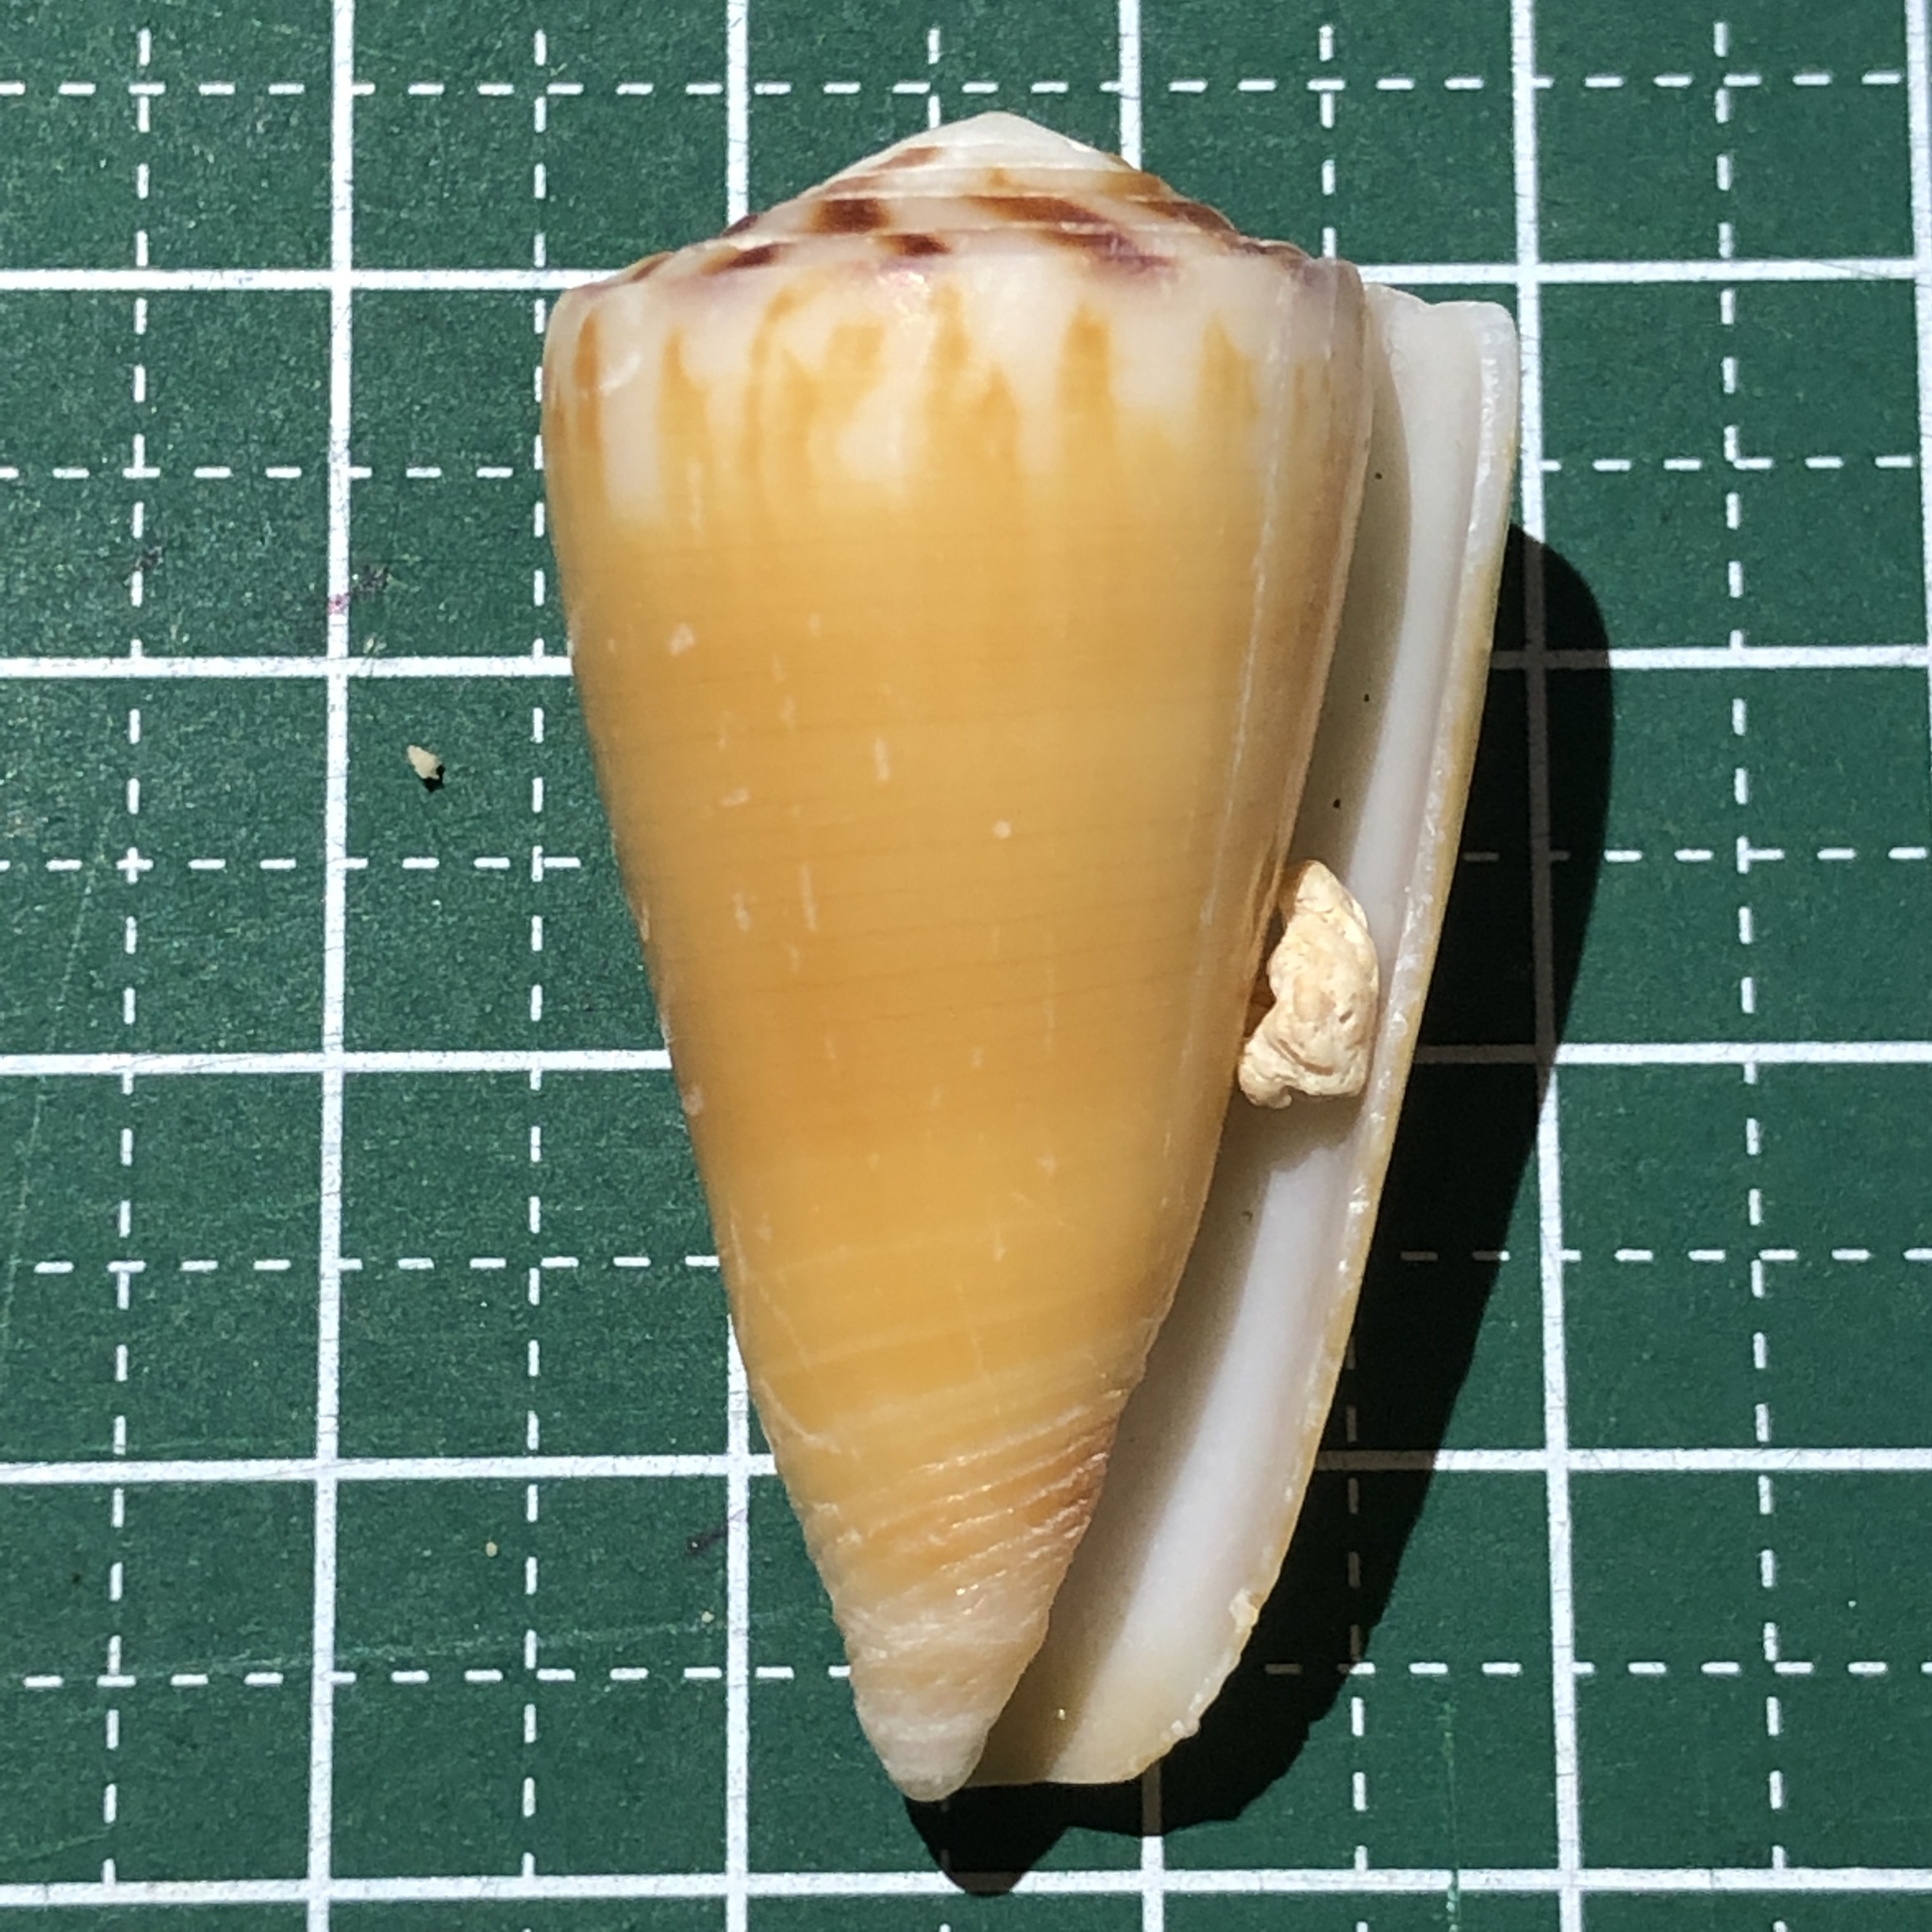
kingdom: Animalia
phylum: Mollusca
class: Gastropoda
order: Neogastropoda
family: Conidae
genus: Conus
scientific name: Conus planorbis
